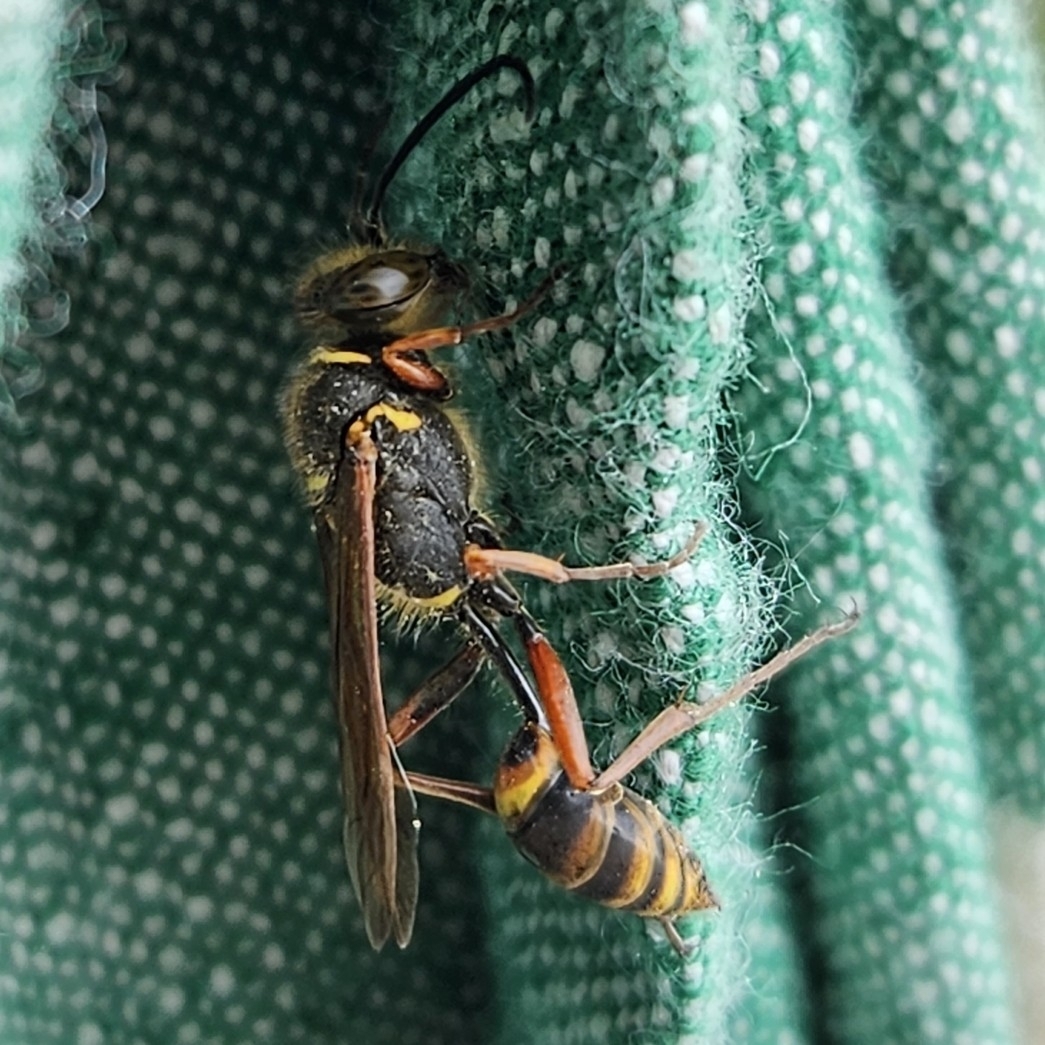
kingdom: Animalia
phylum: Arthropoda
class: Insecta
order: Hymenoptera
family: Sphecidae
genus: Sceliphron
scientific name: Sceliphron curvatum
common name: Pèlopèe
